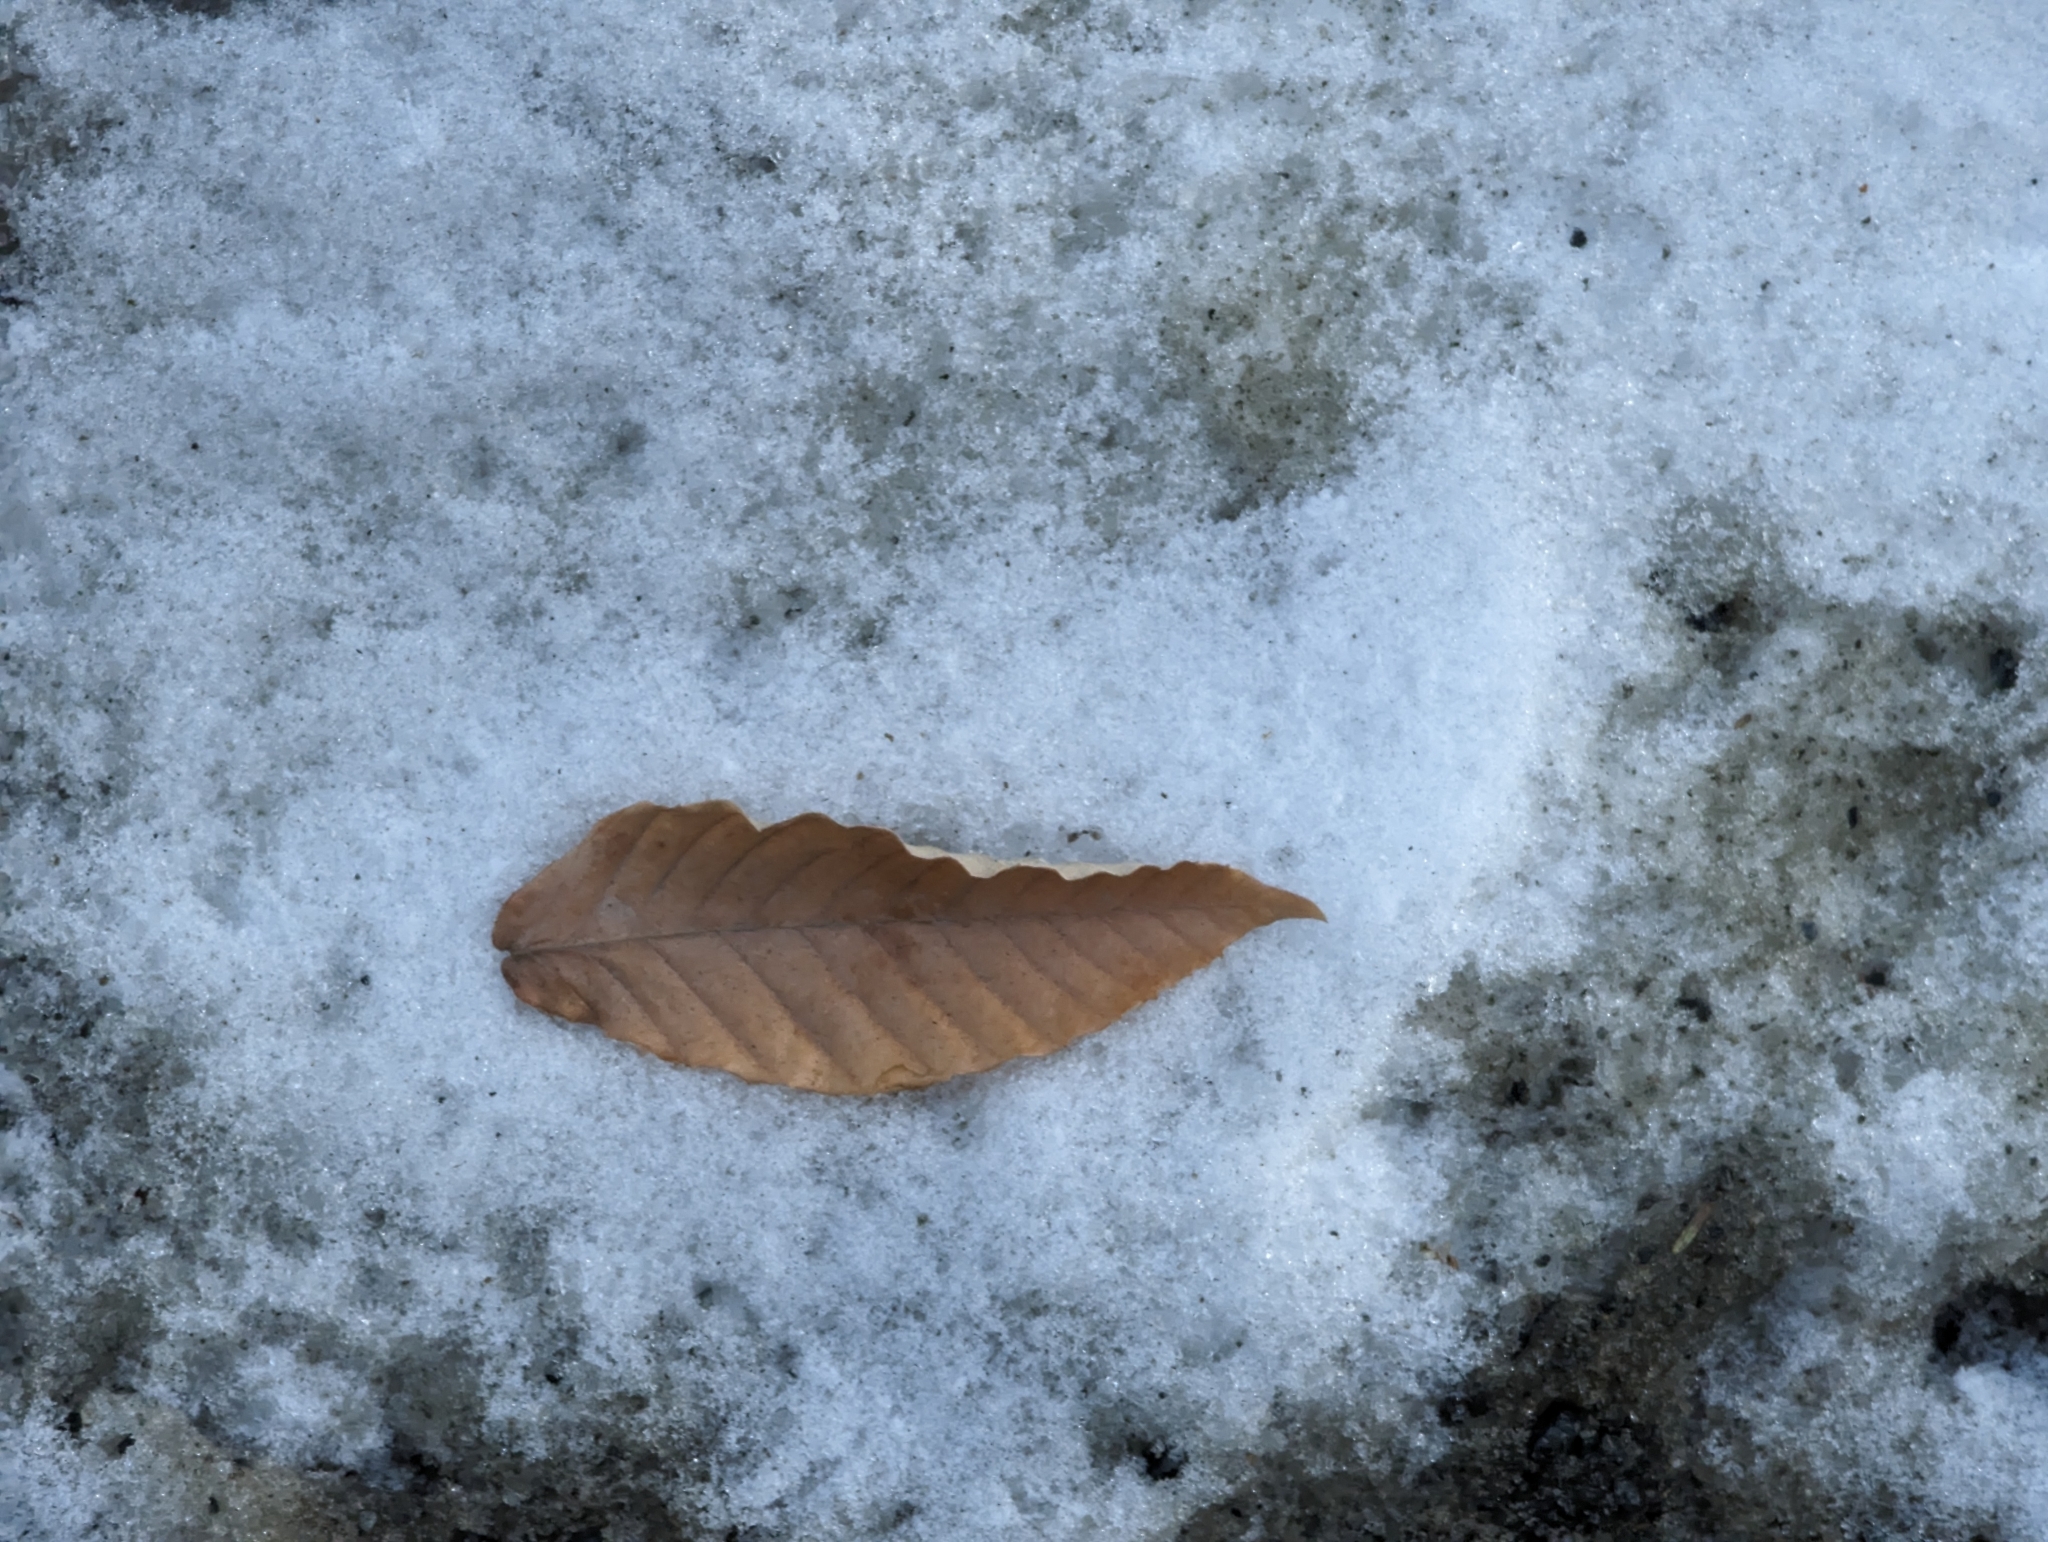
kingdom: Plantae
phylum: Tracheophyta
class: Magnoliopsida
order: Fagales
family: Fagaceae
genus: Fagus
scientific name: Fagus grandifolia
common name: American beech
